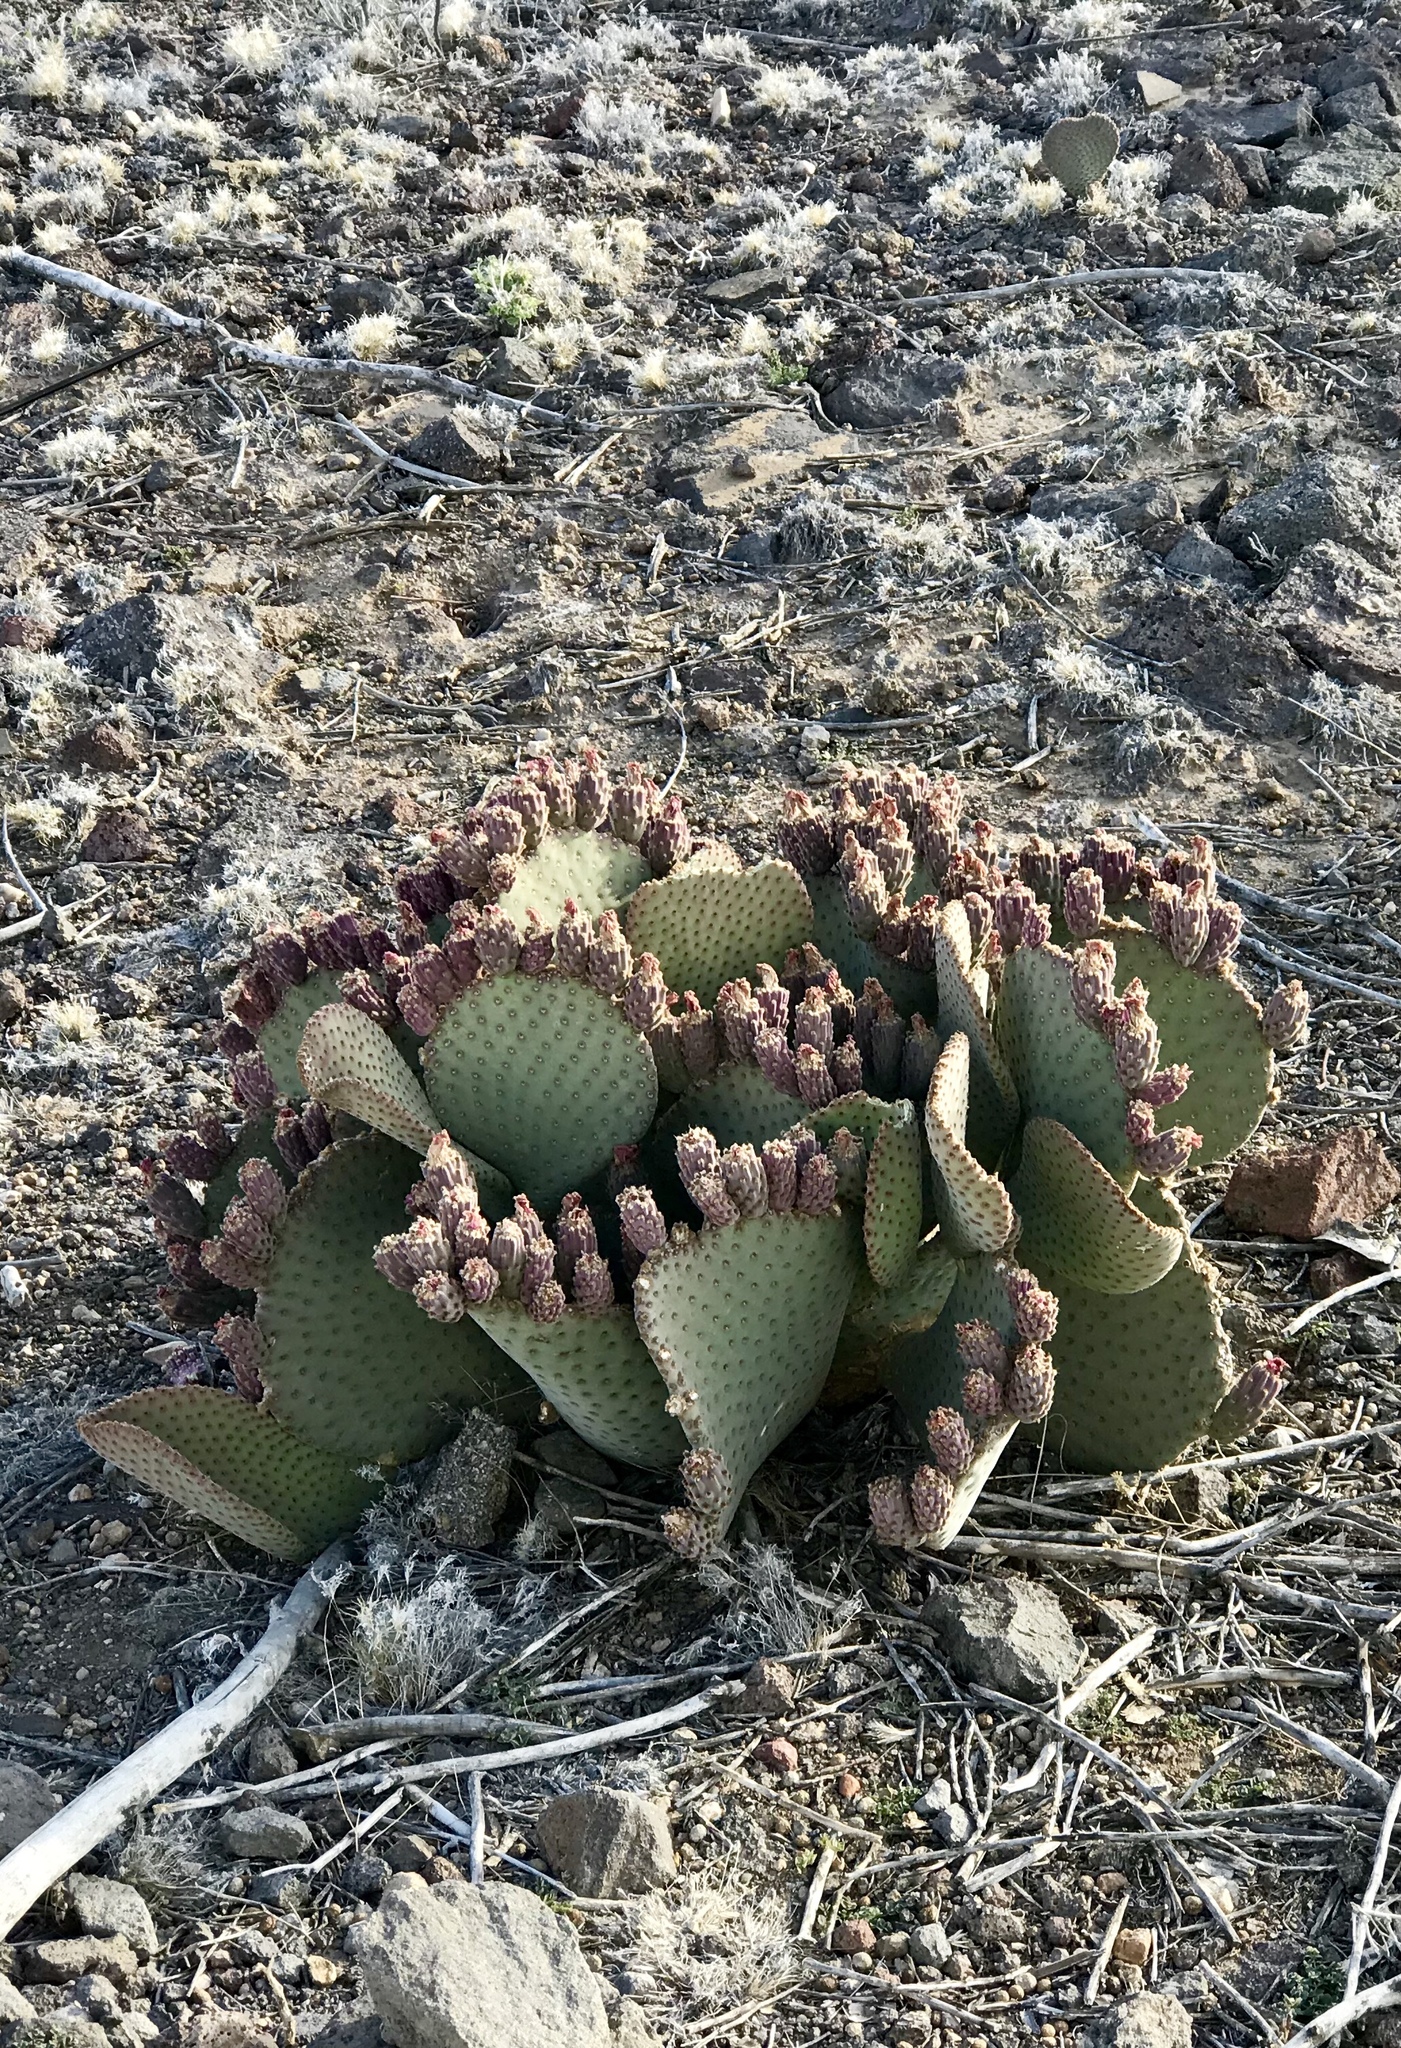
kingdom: Plantae
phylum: Tracheophyta
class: Magnoliopsida
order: Caryophyllales
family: Cactaceae
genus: Opuntia
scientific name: Opuntia basilaris
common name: Beavertail prickly-pear
